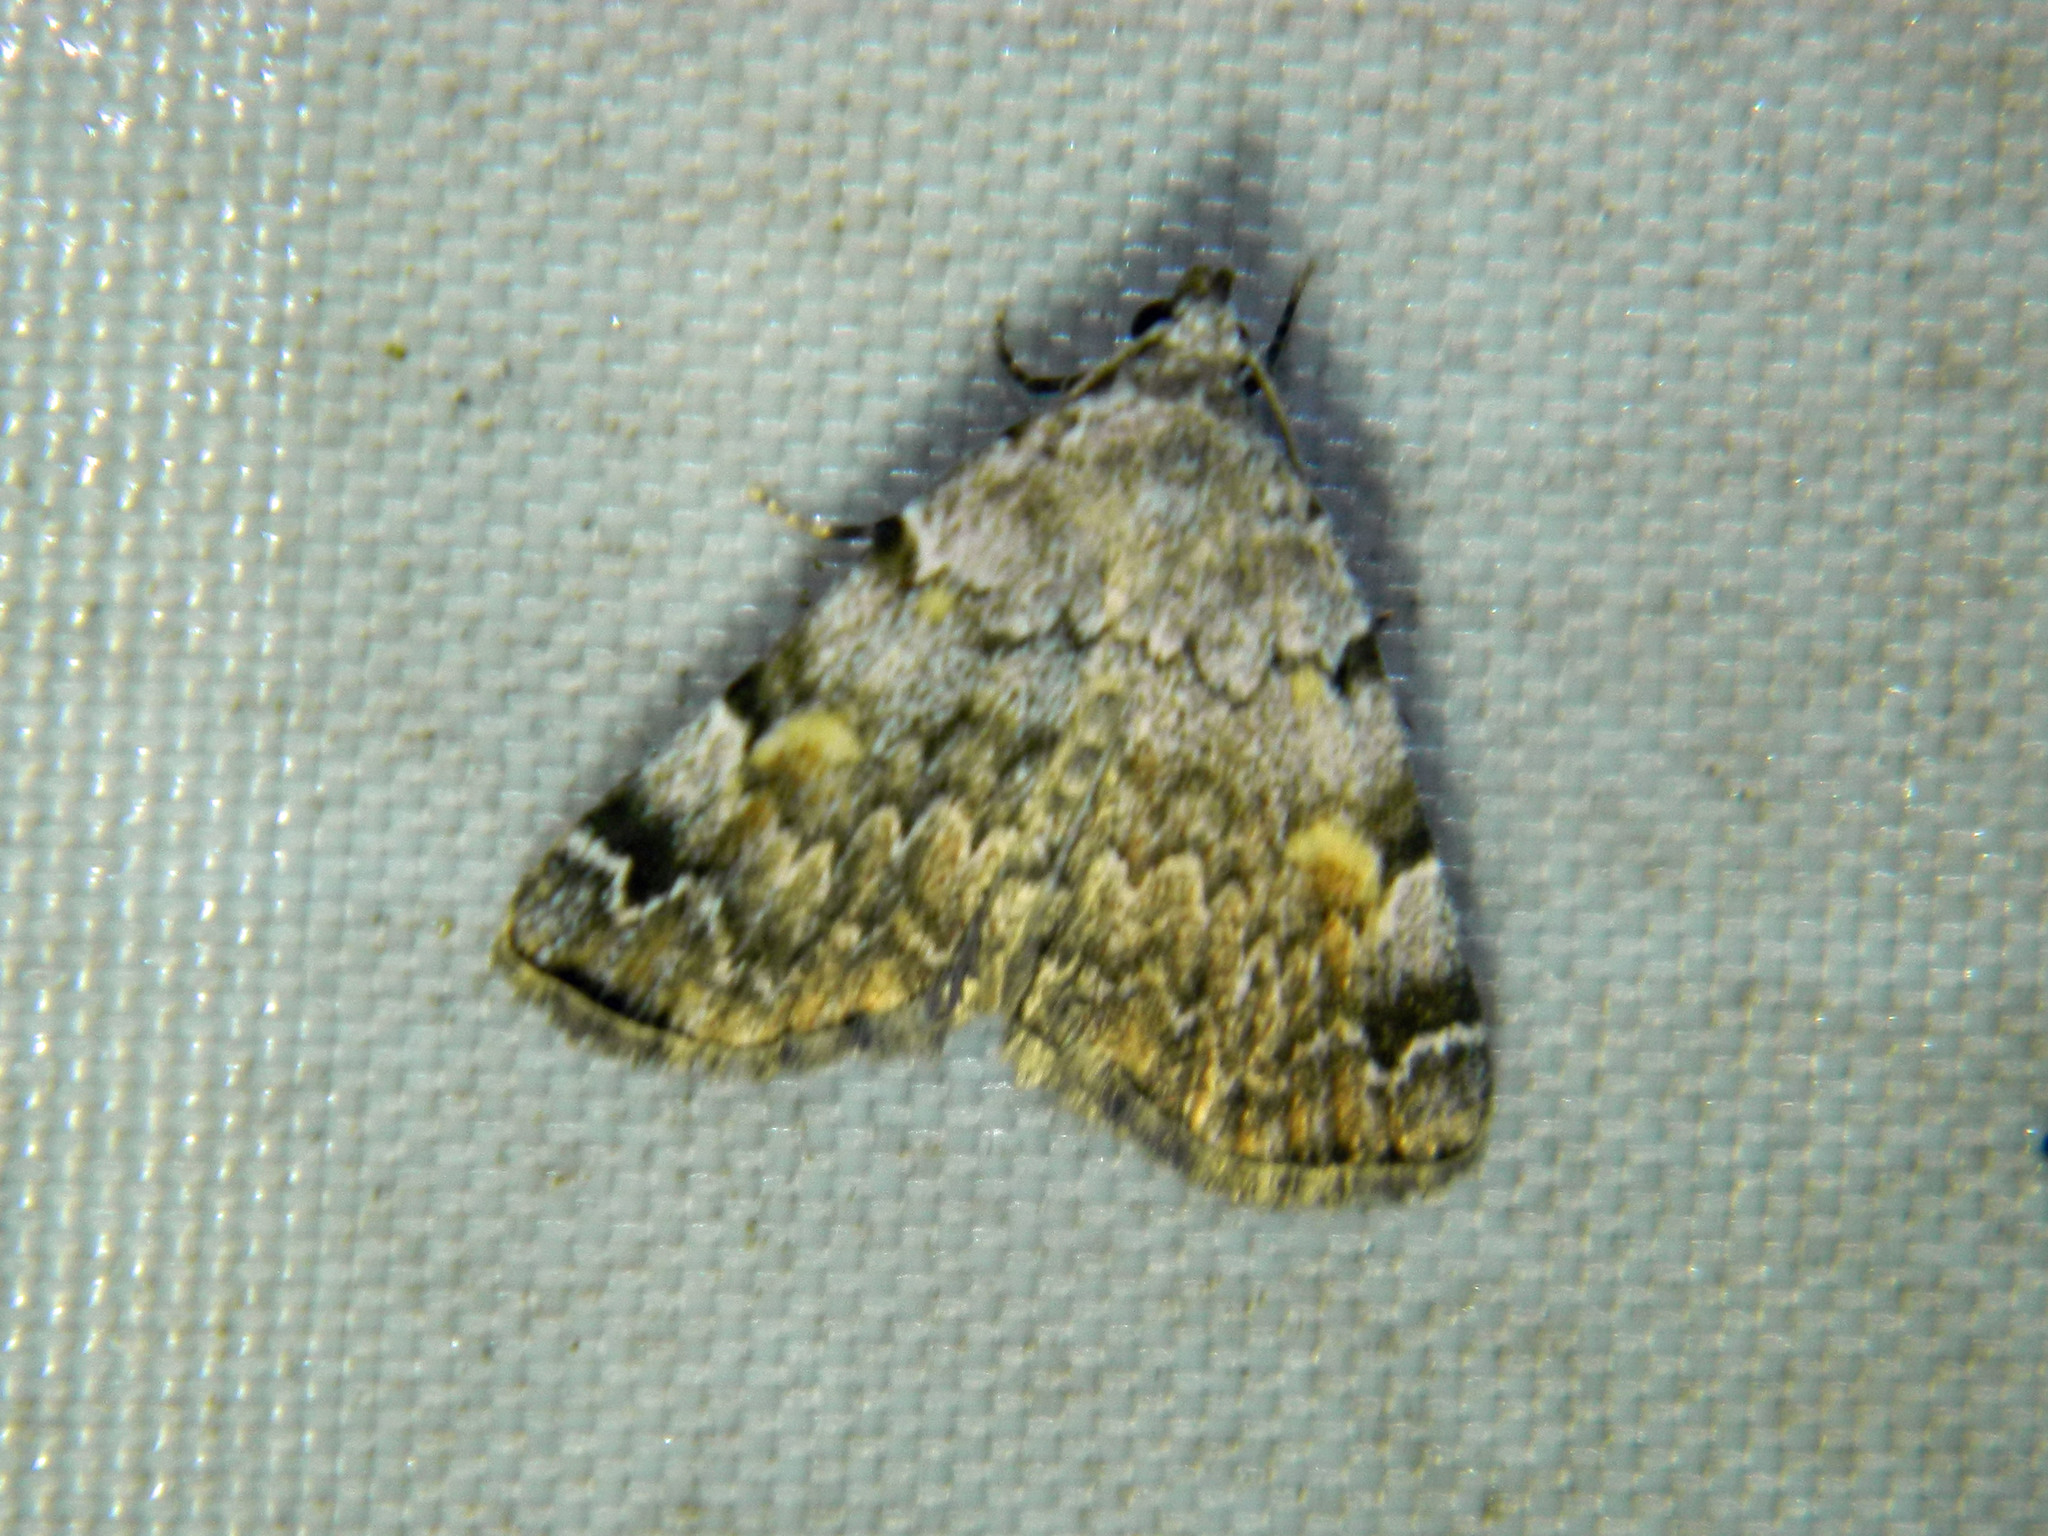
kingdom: Animalia
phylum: Arthropoda
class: Insecta
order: Lepidoptera
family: Erebidae
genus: Idia
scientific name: Idia americalis
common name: American idia moth
